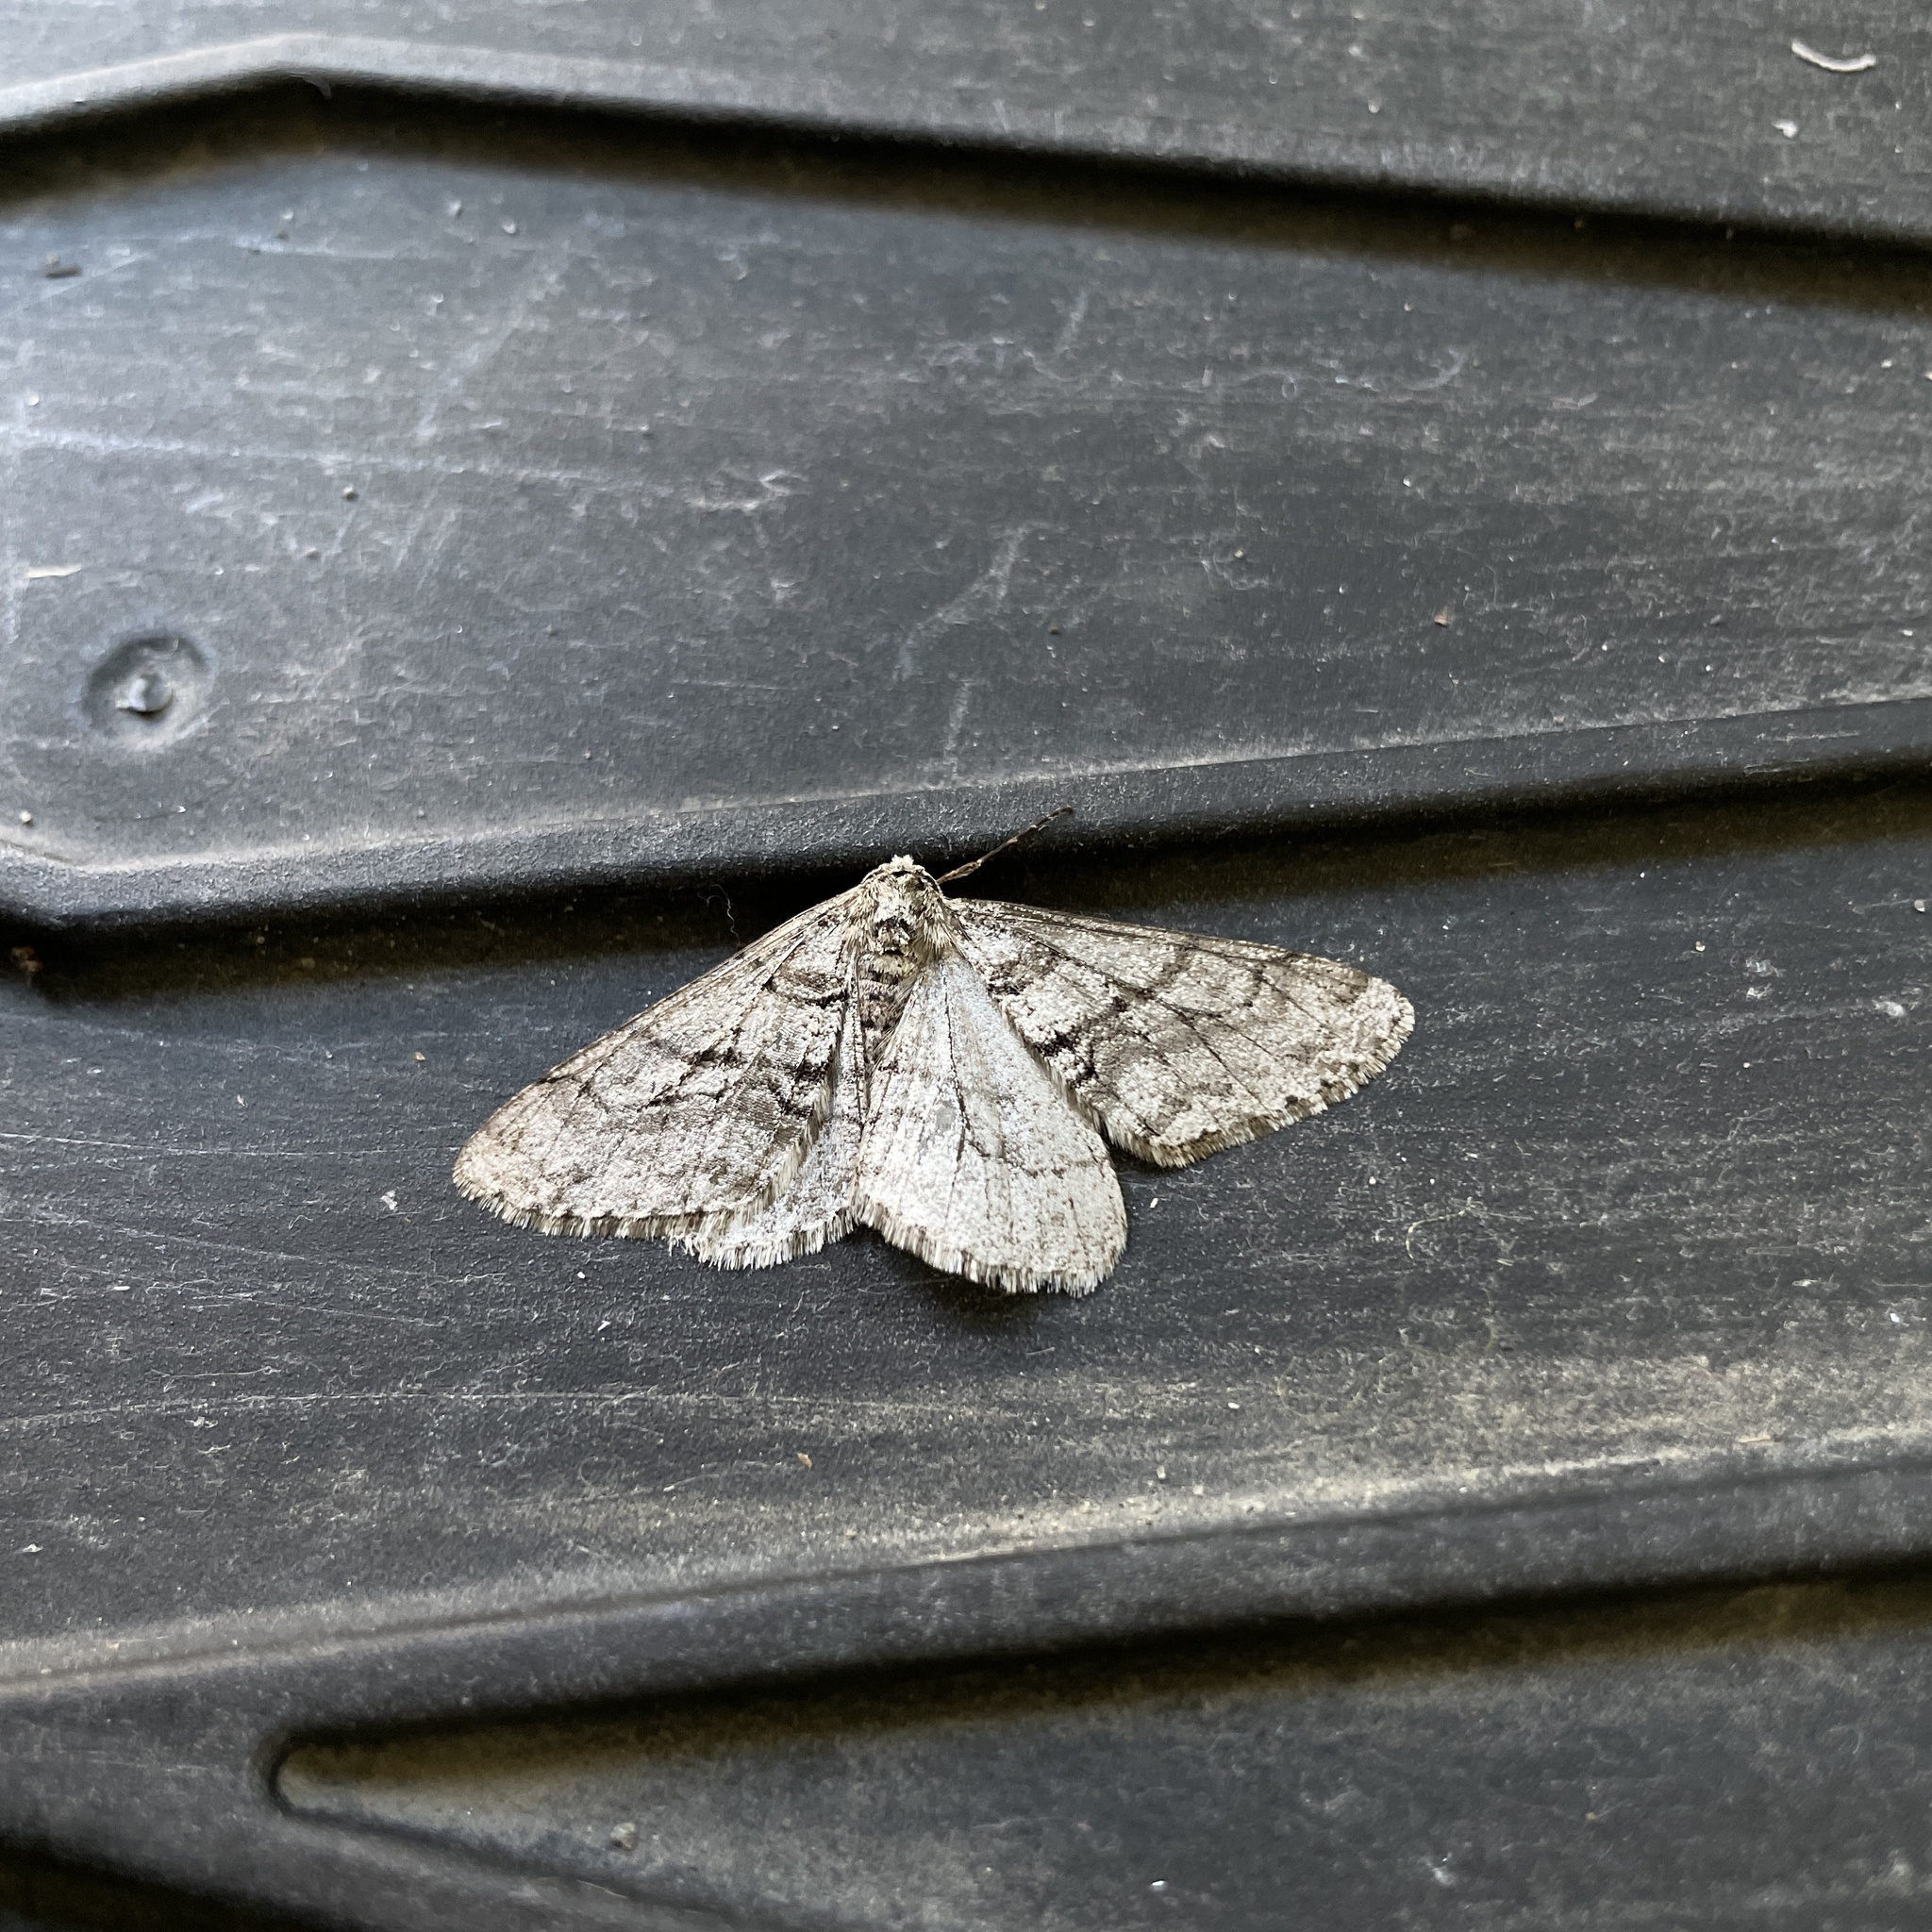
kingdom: Animalia
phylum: Arthropoda
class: Insecta
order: Lepidoptera
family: Geometridae
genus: Phigalia
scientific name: Phigalia titea
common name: Spiny looper
